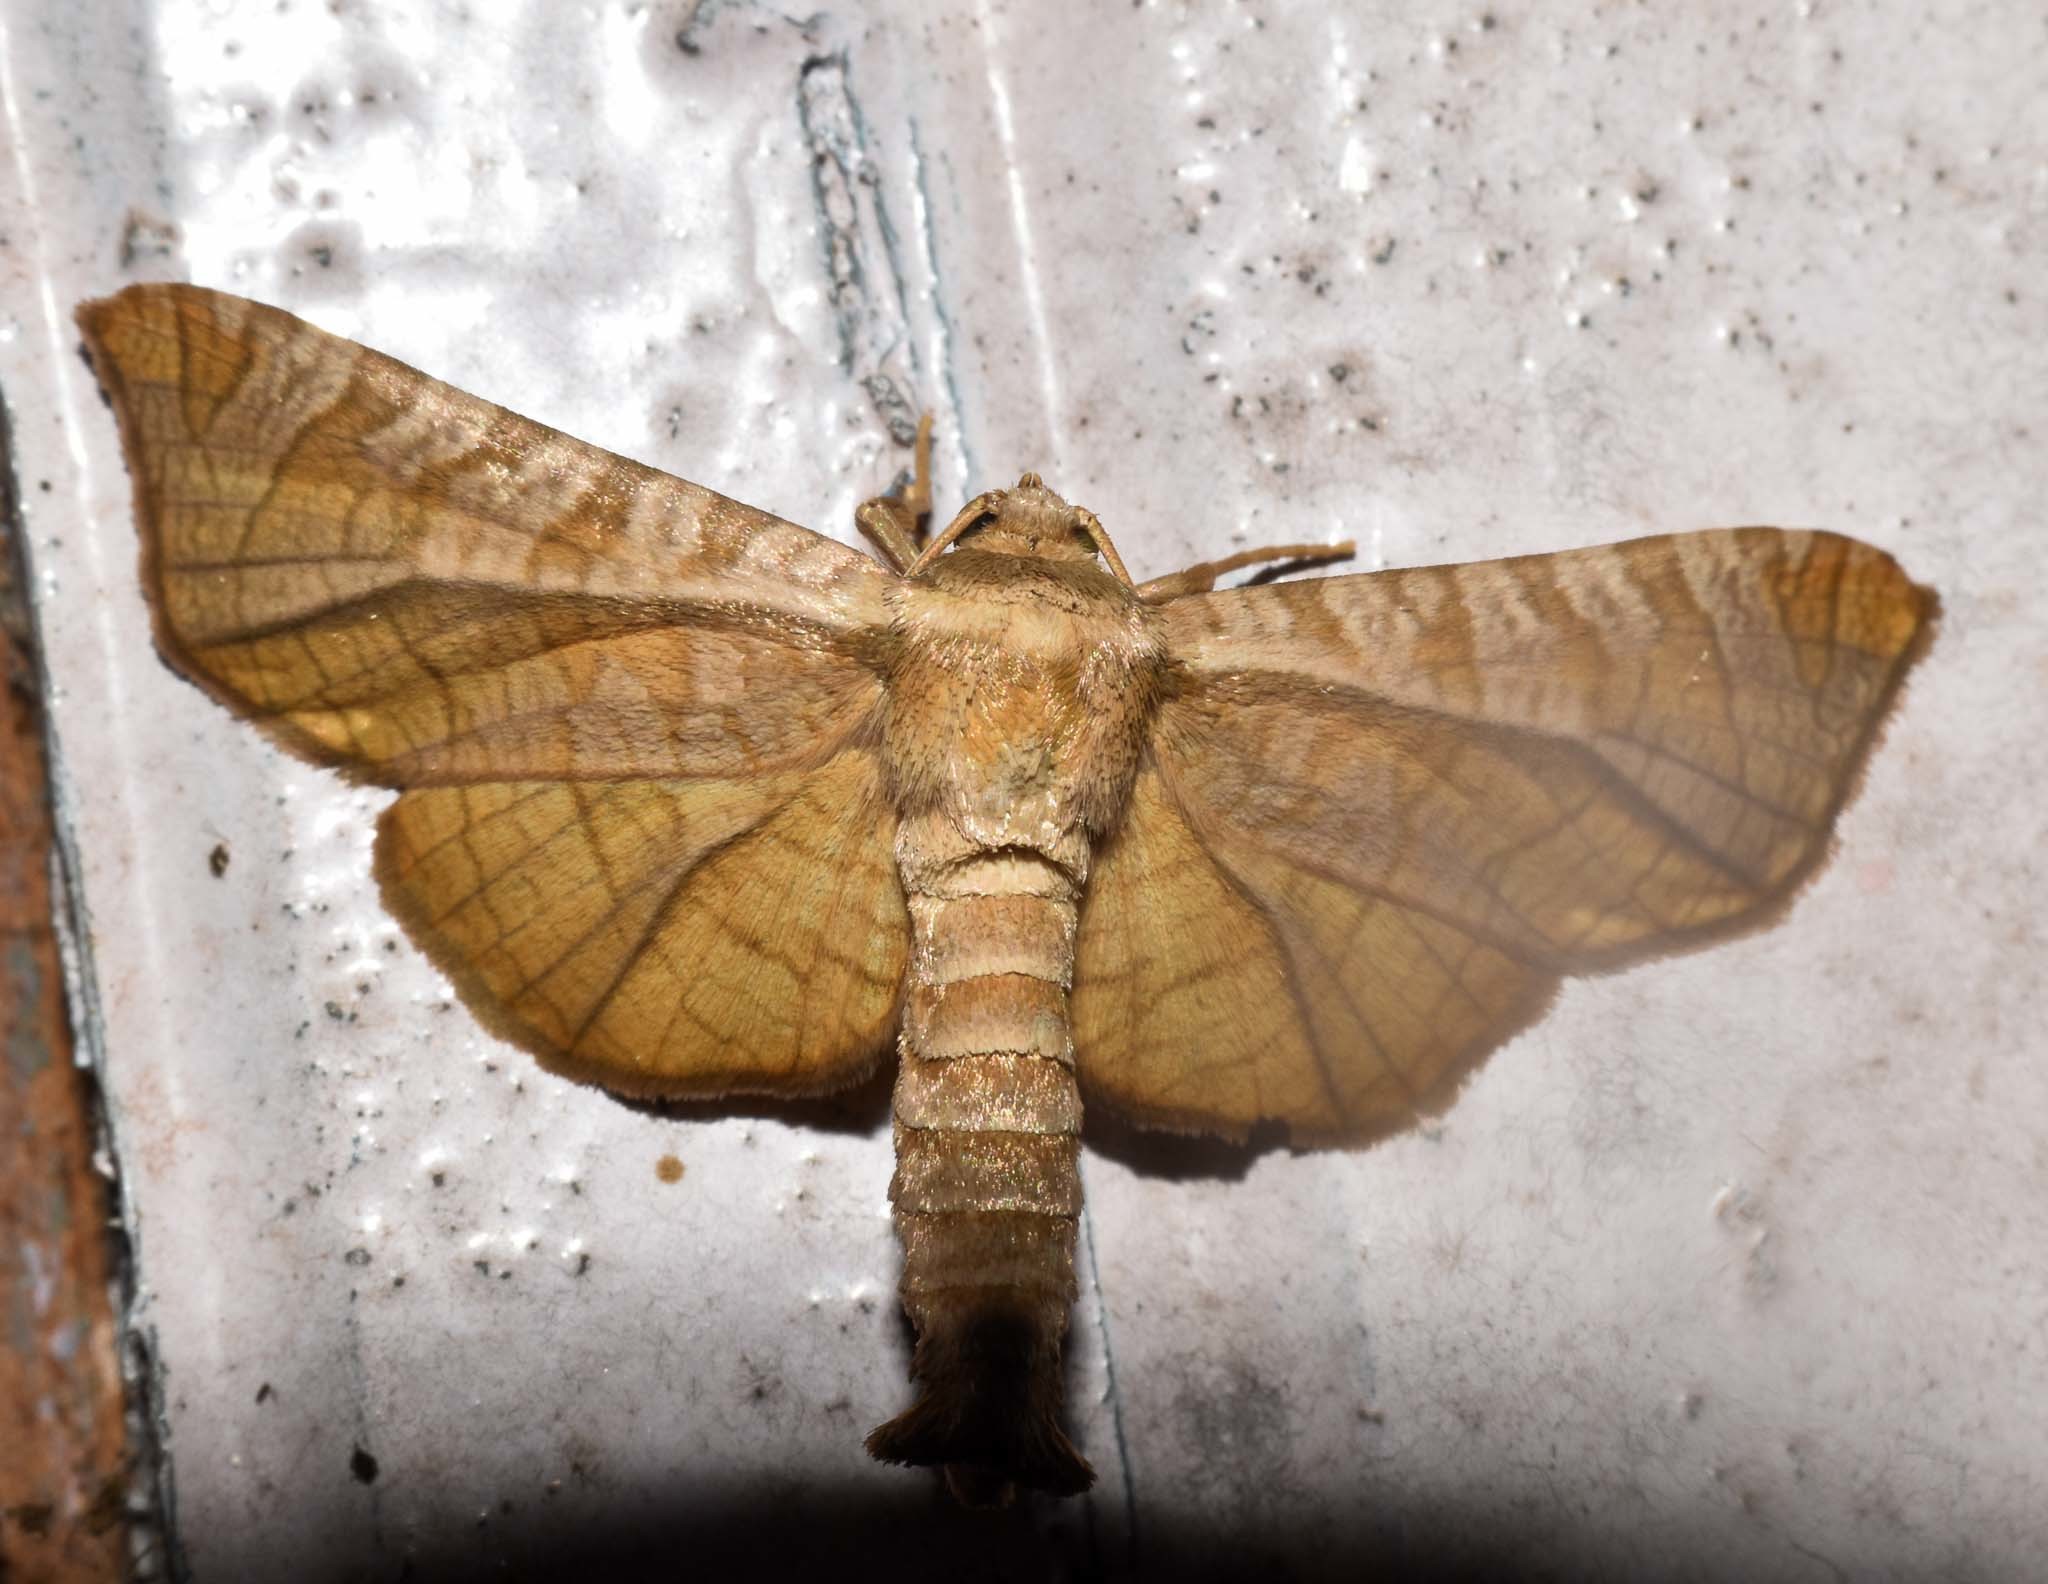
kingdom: Animalia
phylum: Arthropoda
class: Insecta
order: Lepidoptera
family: Thyrididae
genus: Opula
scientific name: Opula
